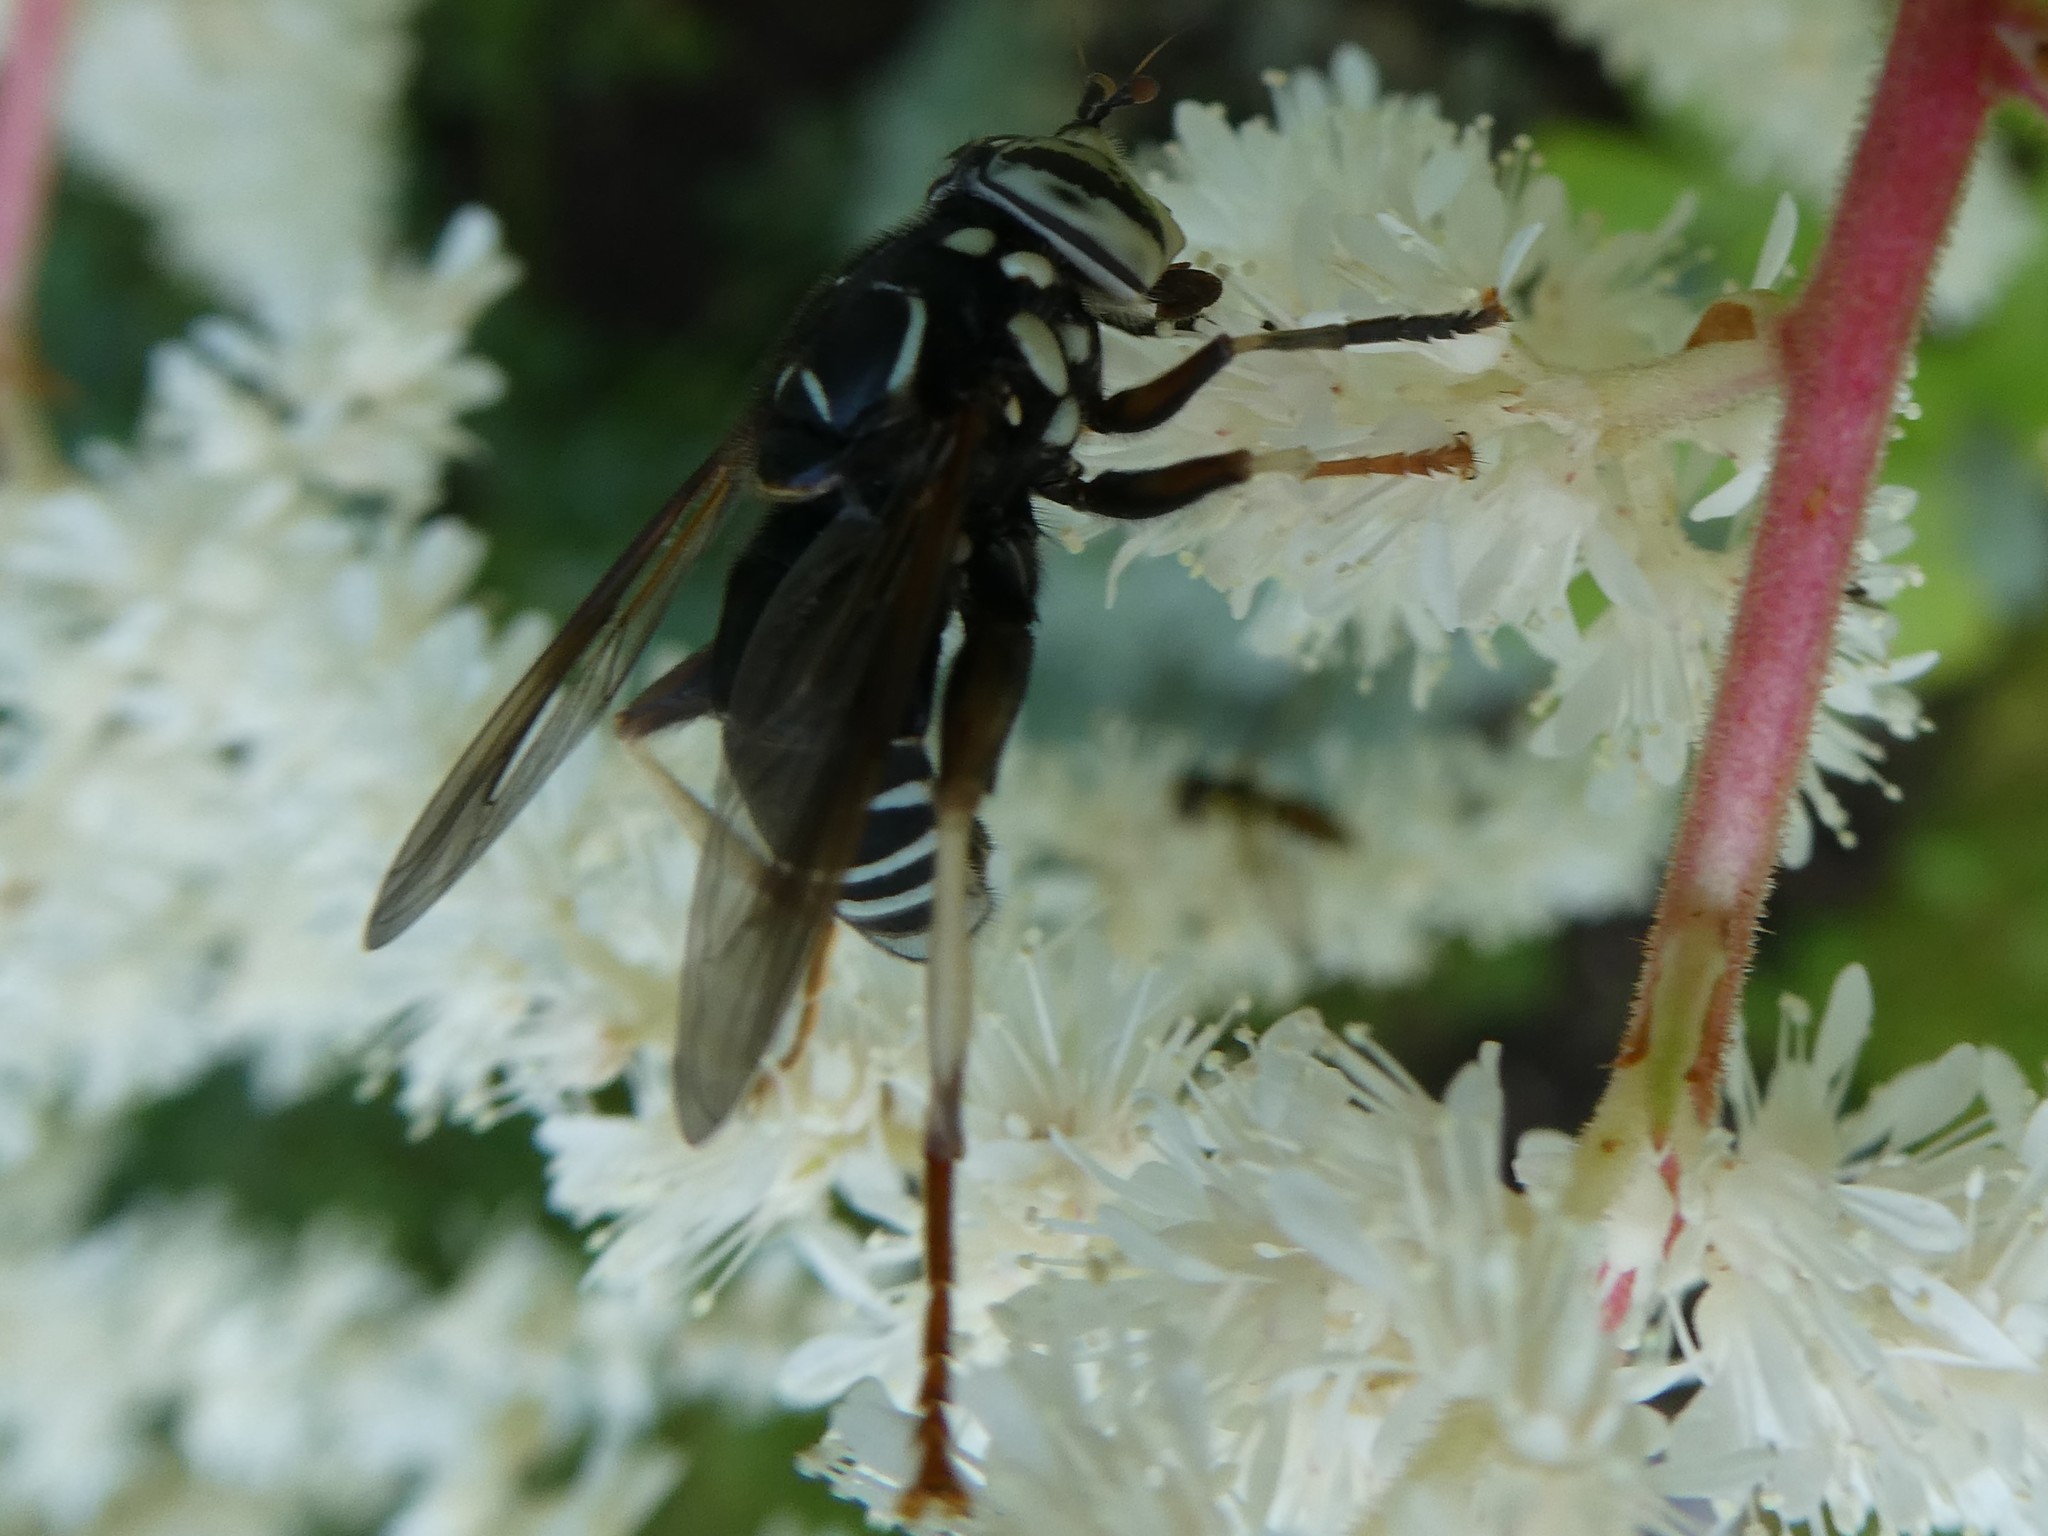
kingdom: Animalia
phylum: Arthropoda
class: Insecta
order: Diptera
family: Syrphidae
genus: Spilomyia
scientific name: Spilomyia fusca
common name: Bald-faced hornet fly
